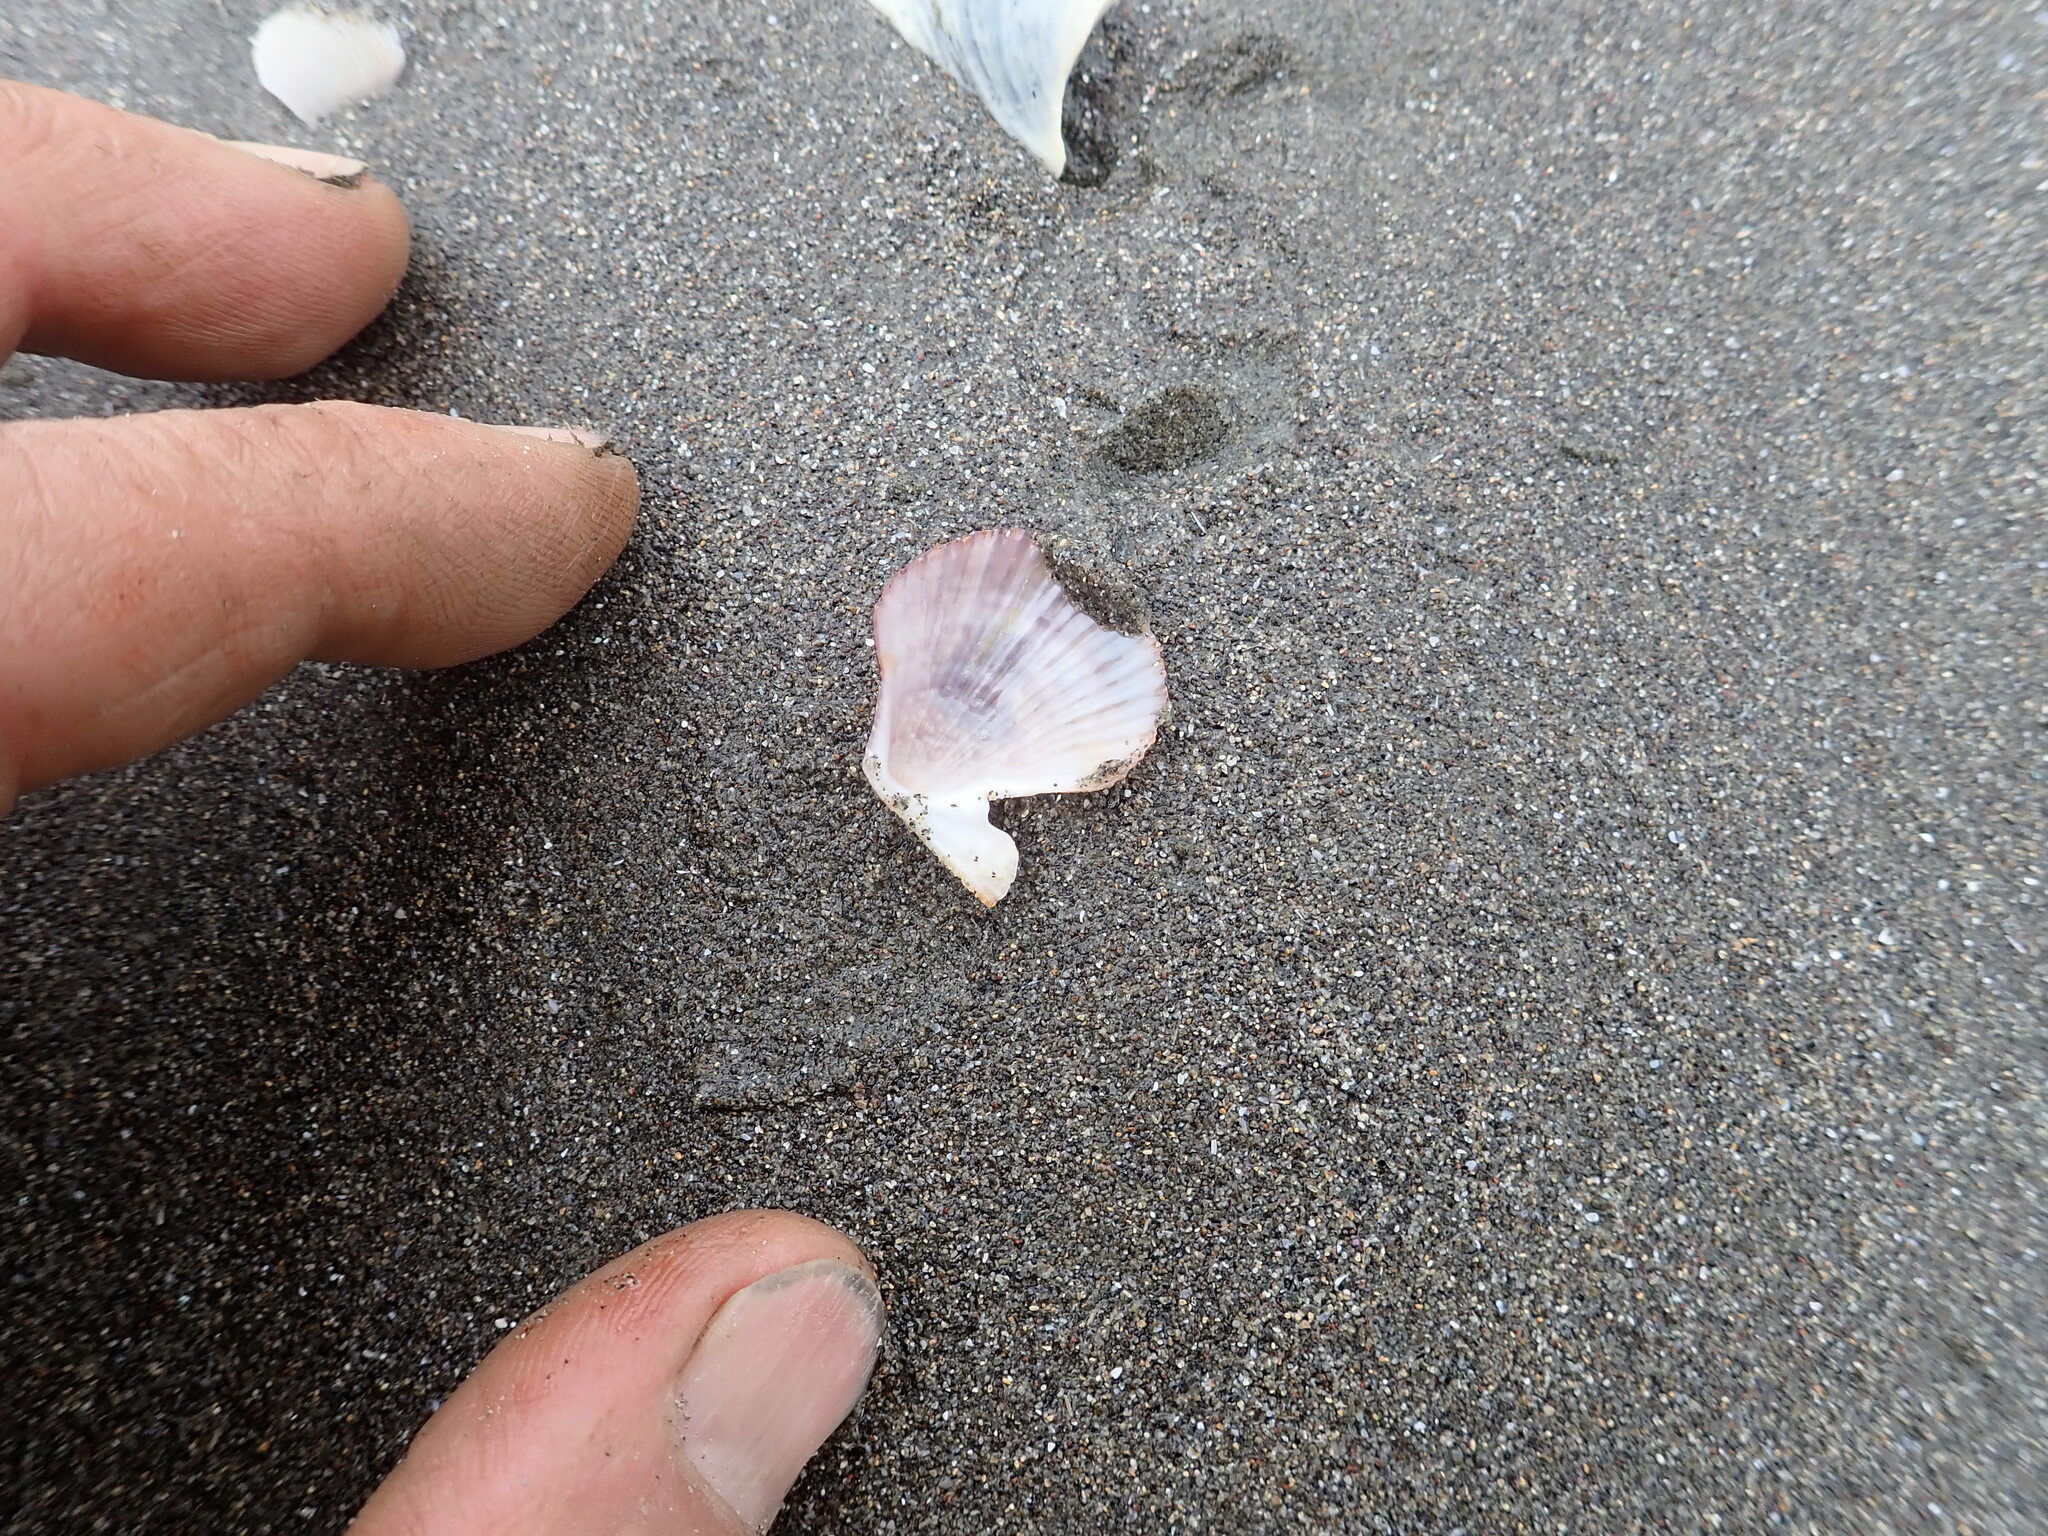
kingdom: Animalia
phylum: Mollusca
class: Bivalvia
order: Pectinida
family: Pectinidae
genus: Talochlamys
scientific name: Talochlamys zelandiae
